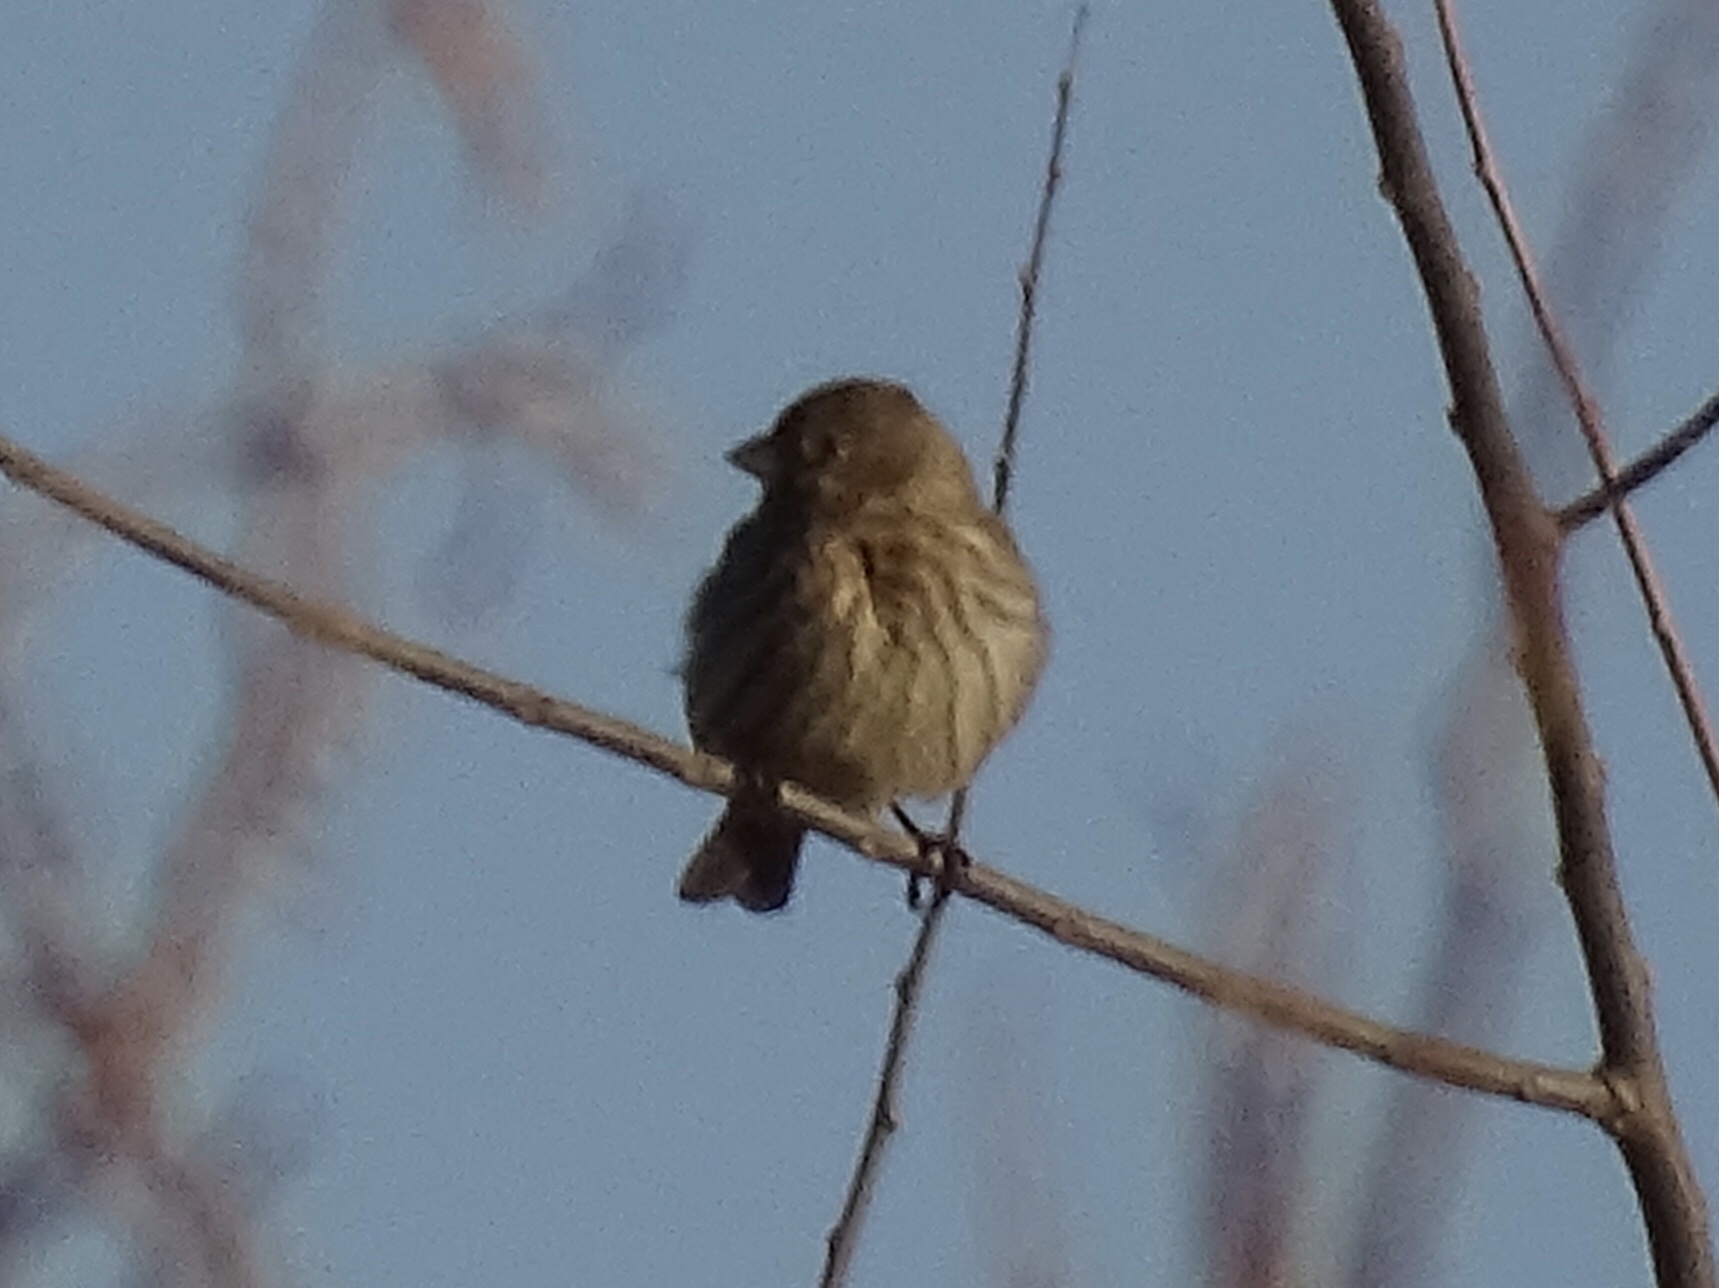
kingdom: Animalia
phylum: Chordata
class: Aves
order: Passeriformes
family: Fringillidae
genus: Haemorhous
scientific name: Haemorhous mexicanus
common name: House finch
